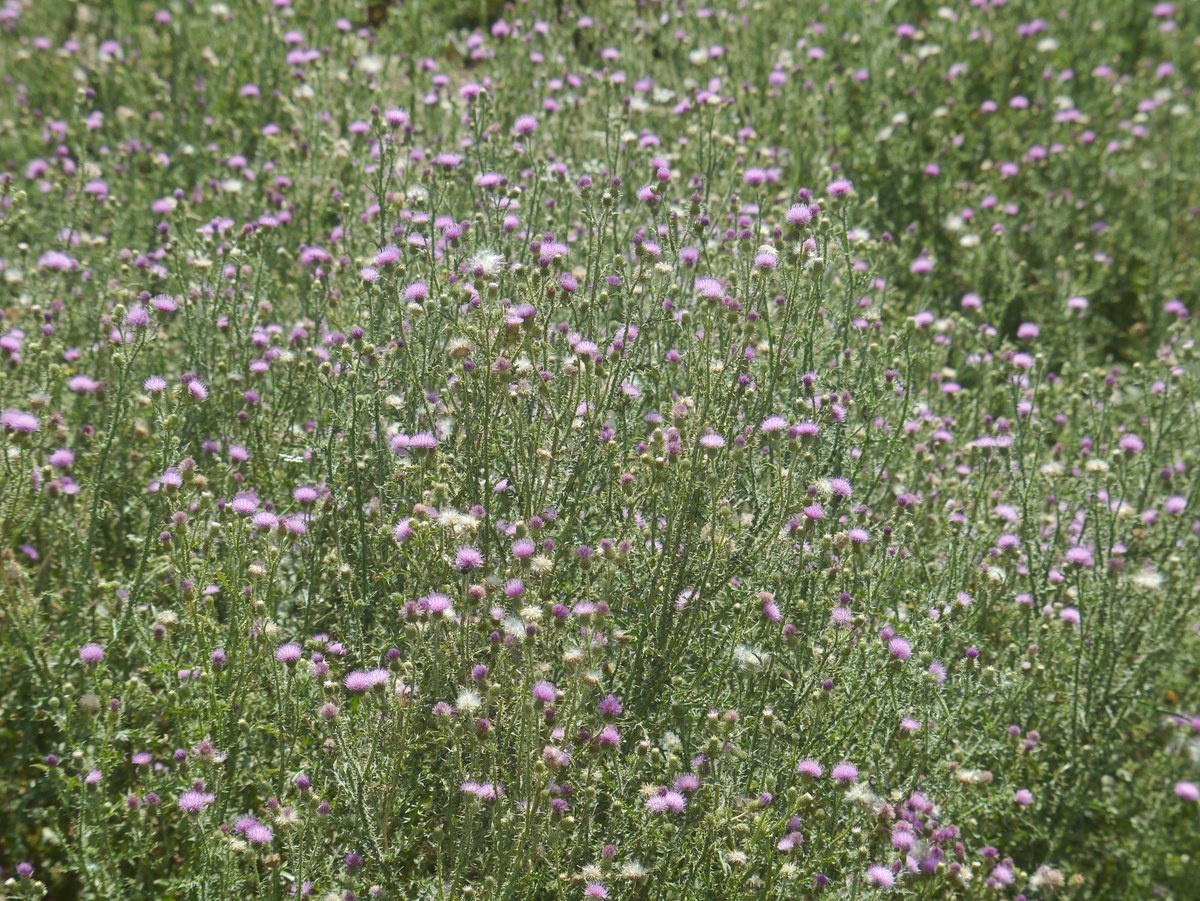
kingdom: Plantae
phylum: Tracheophyta
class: Magnoliopsida
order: Asterales
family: Asteraceae
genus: Carduus
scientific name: Carduus acanthoides
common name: Plumeless thistle
